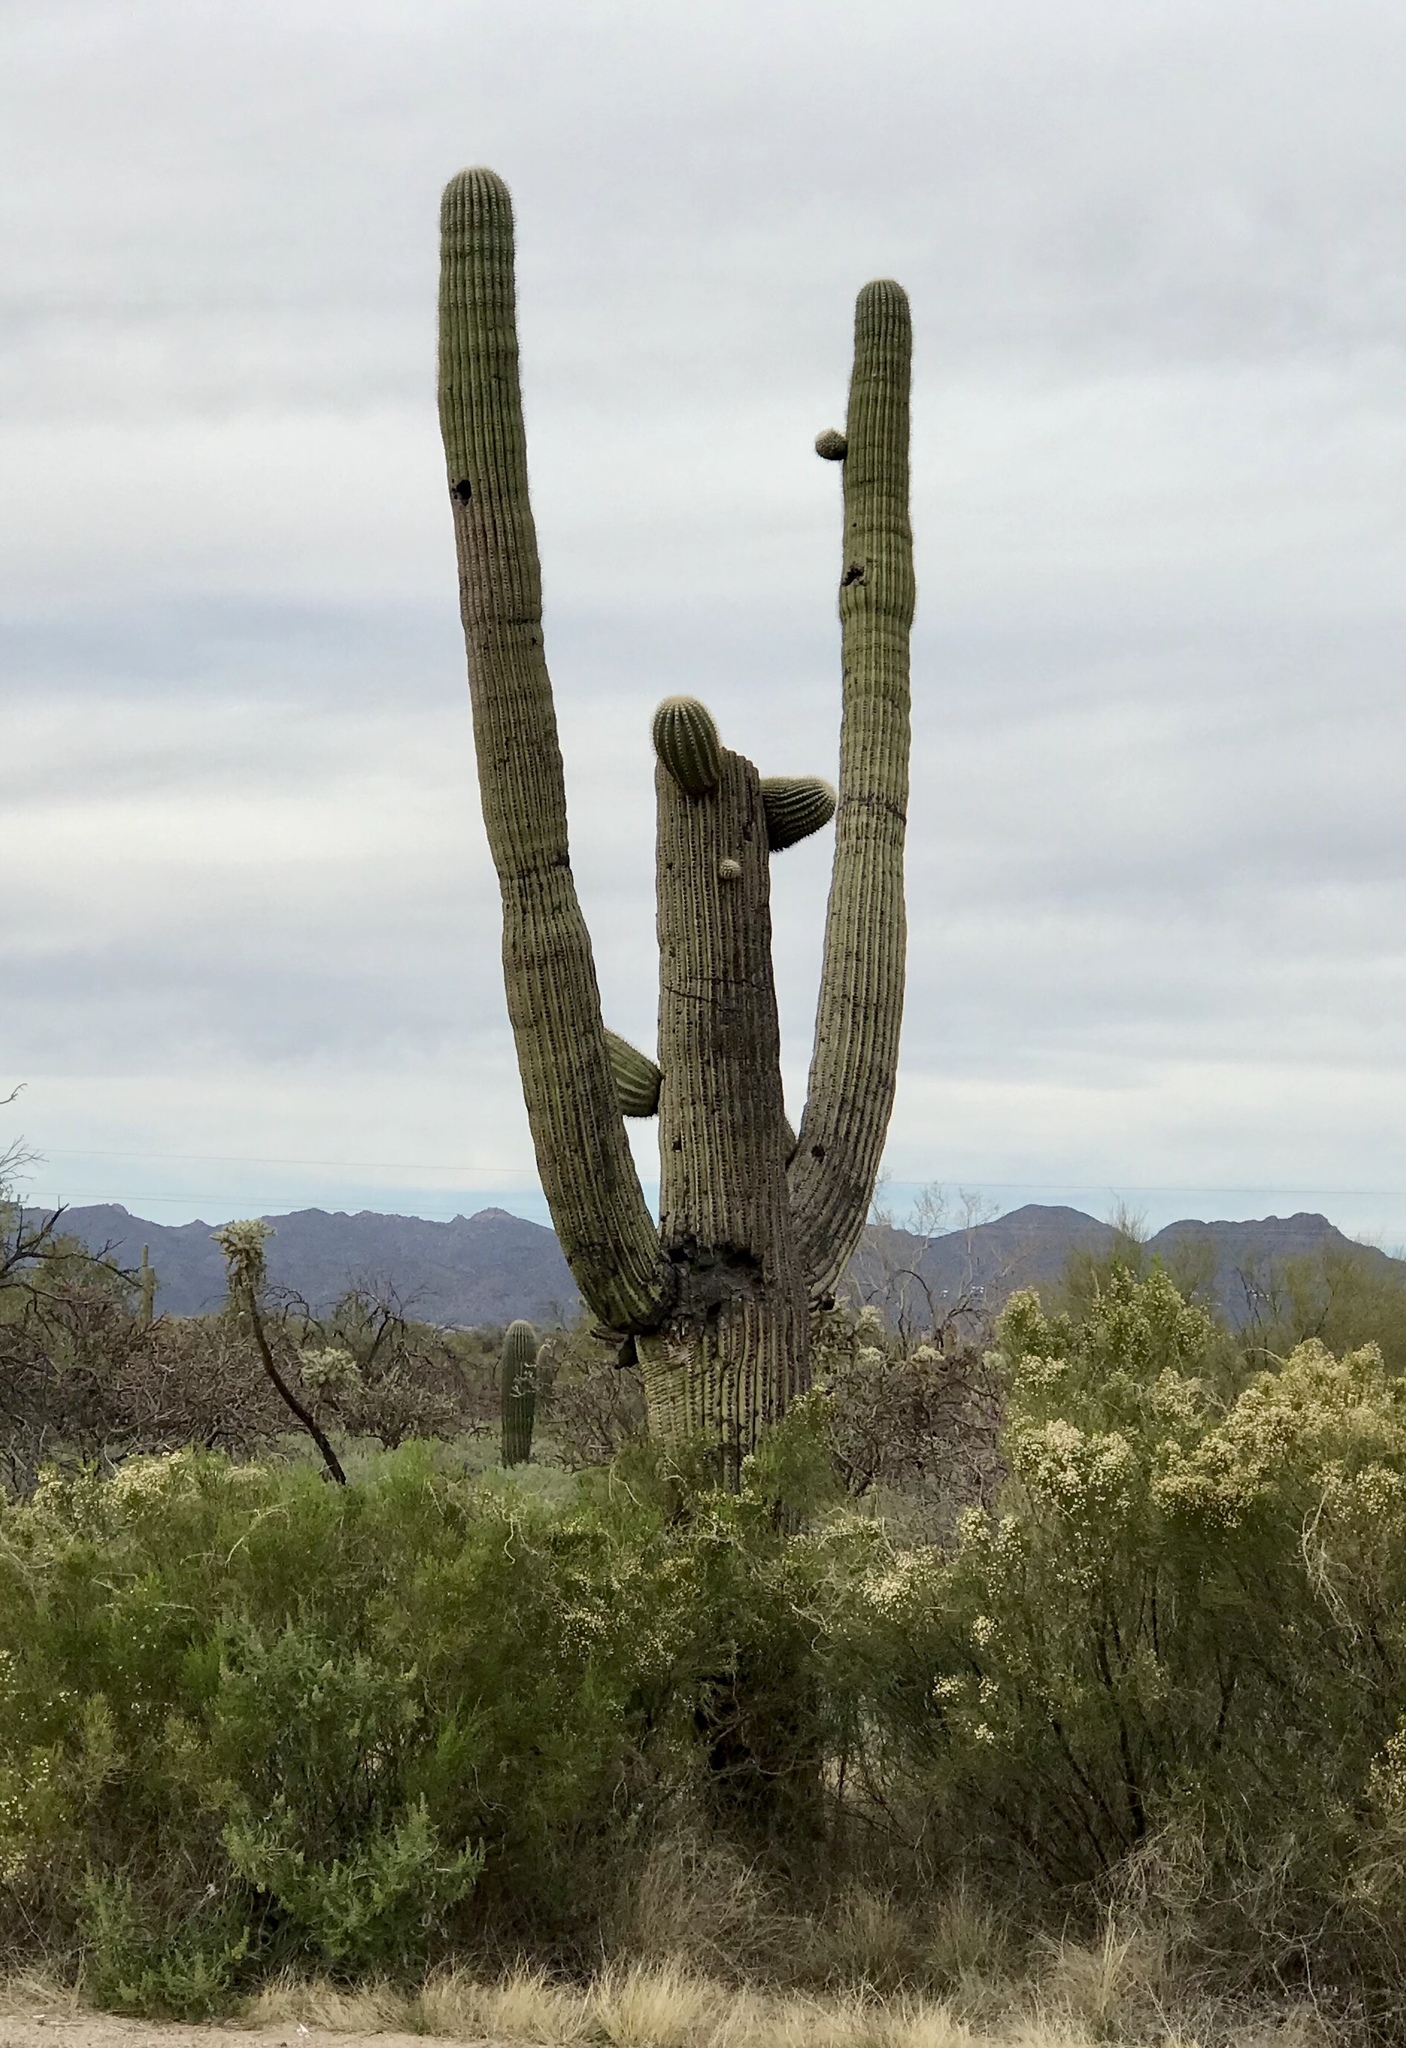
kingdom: Plantae
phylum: Tracheophyta
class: Magnoliopsida
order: Caryophyllales
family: Cactaceae
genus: Carnegiea
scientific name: Carnegiea gigantea
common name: Saguaro
